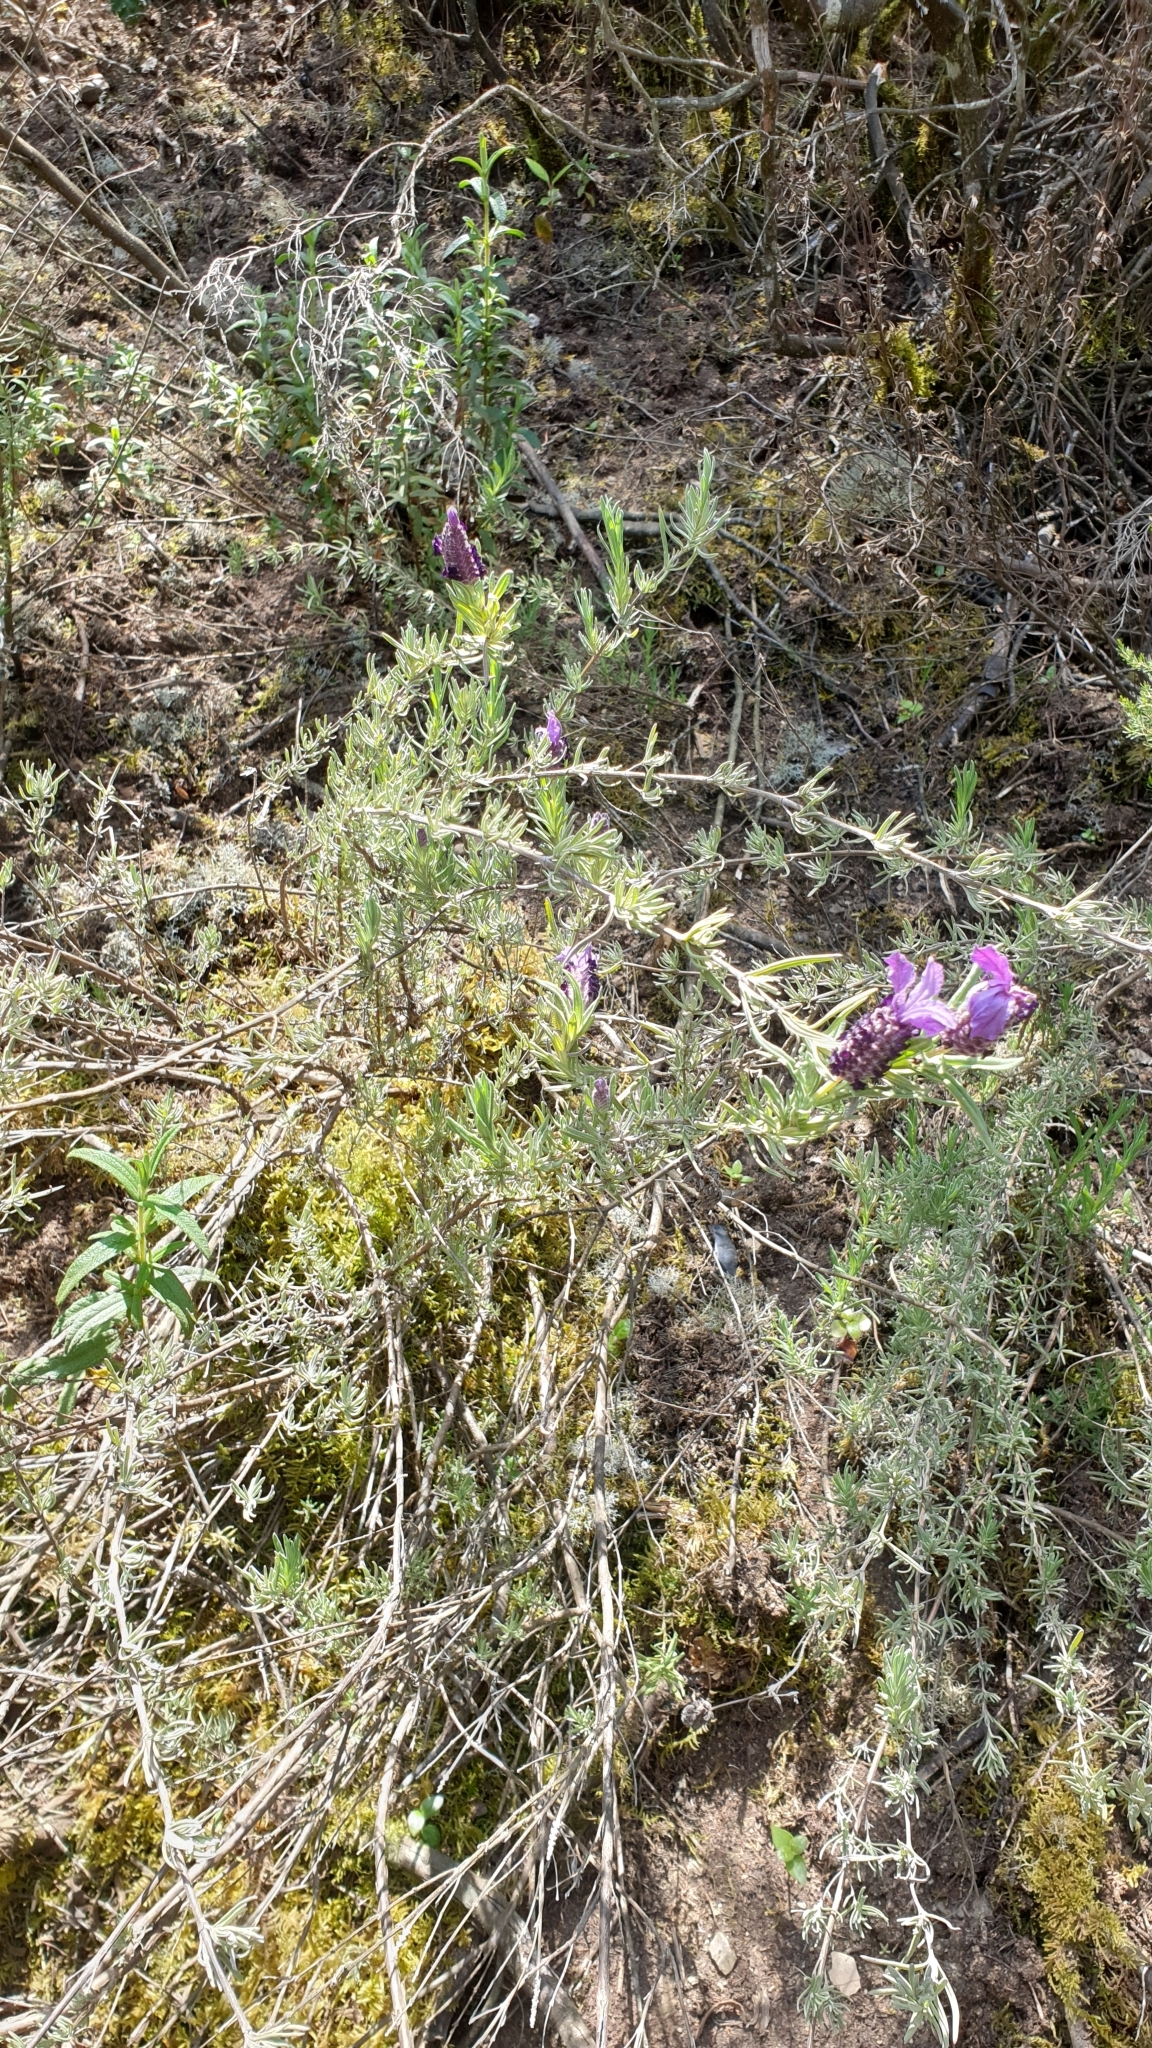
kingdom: Plantae
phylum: Tracheophyta
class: Magnoliopsida
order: Lamiales
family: Lamiaceae
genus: Lavandula
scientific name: Lavandula stoechas
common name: French lavender
